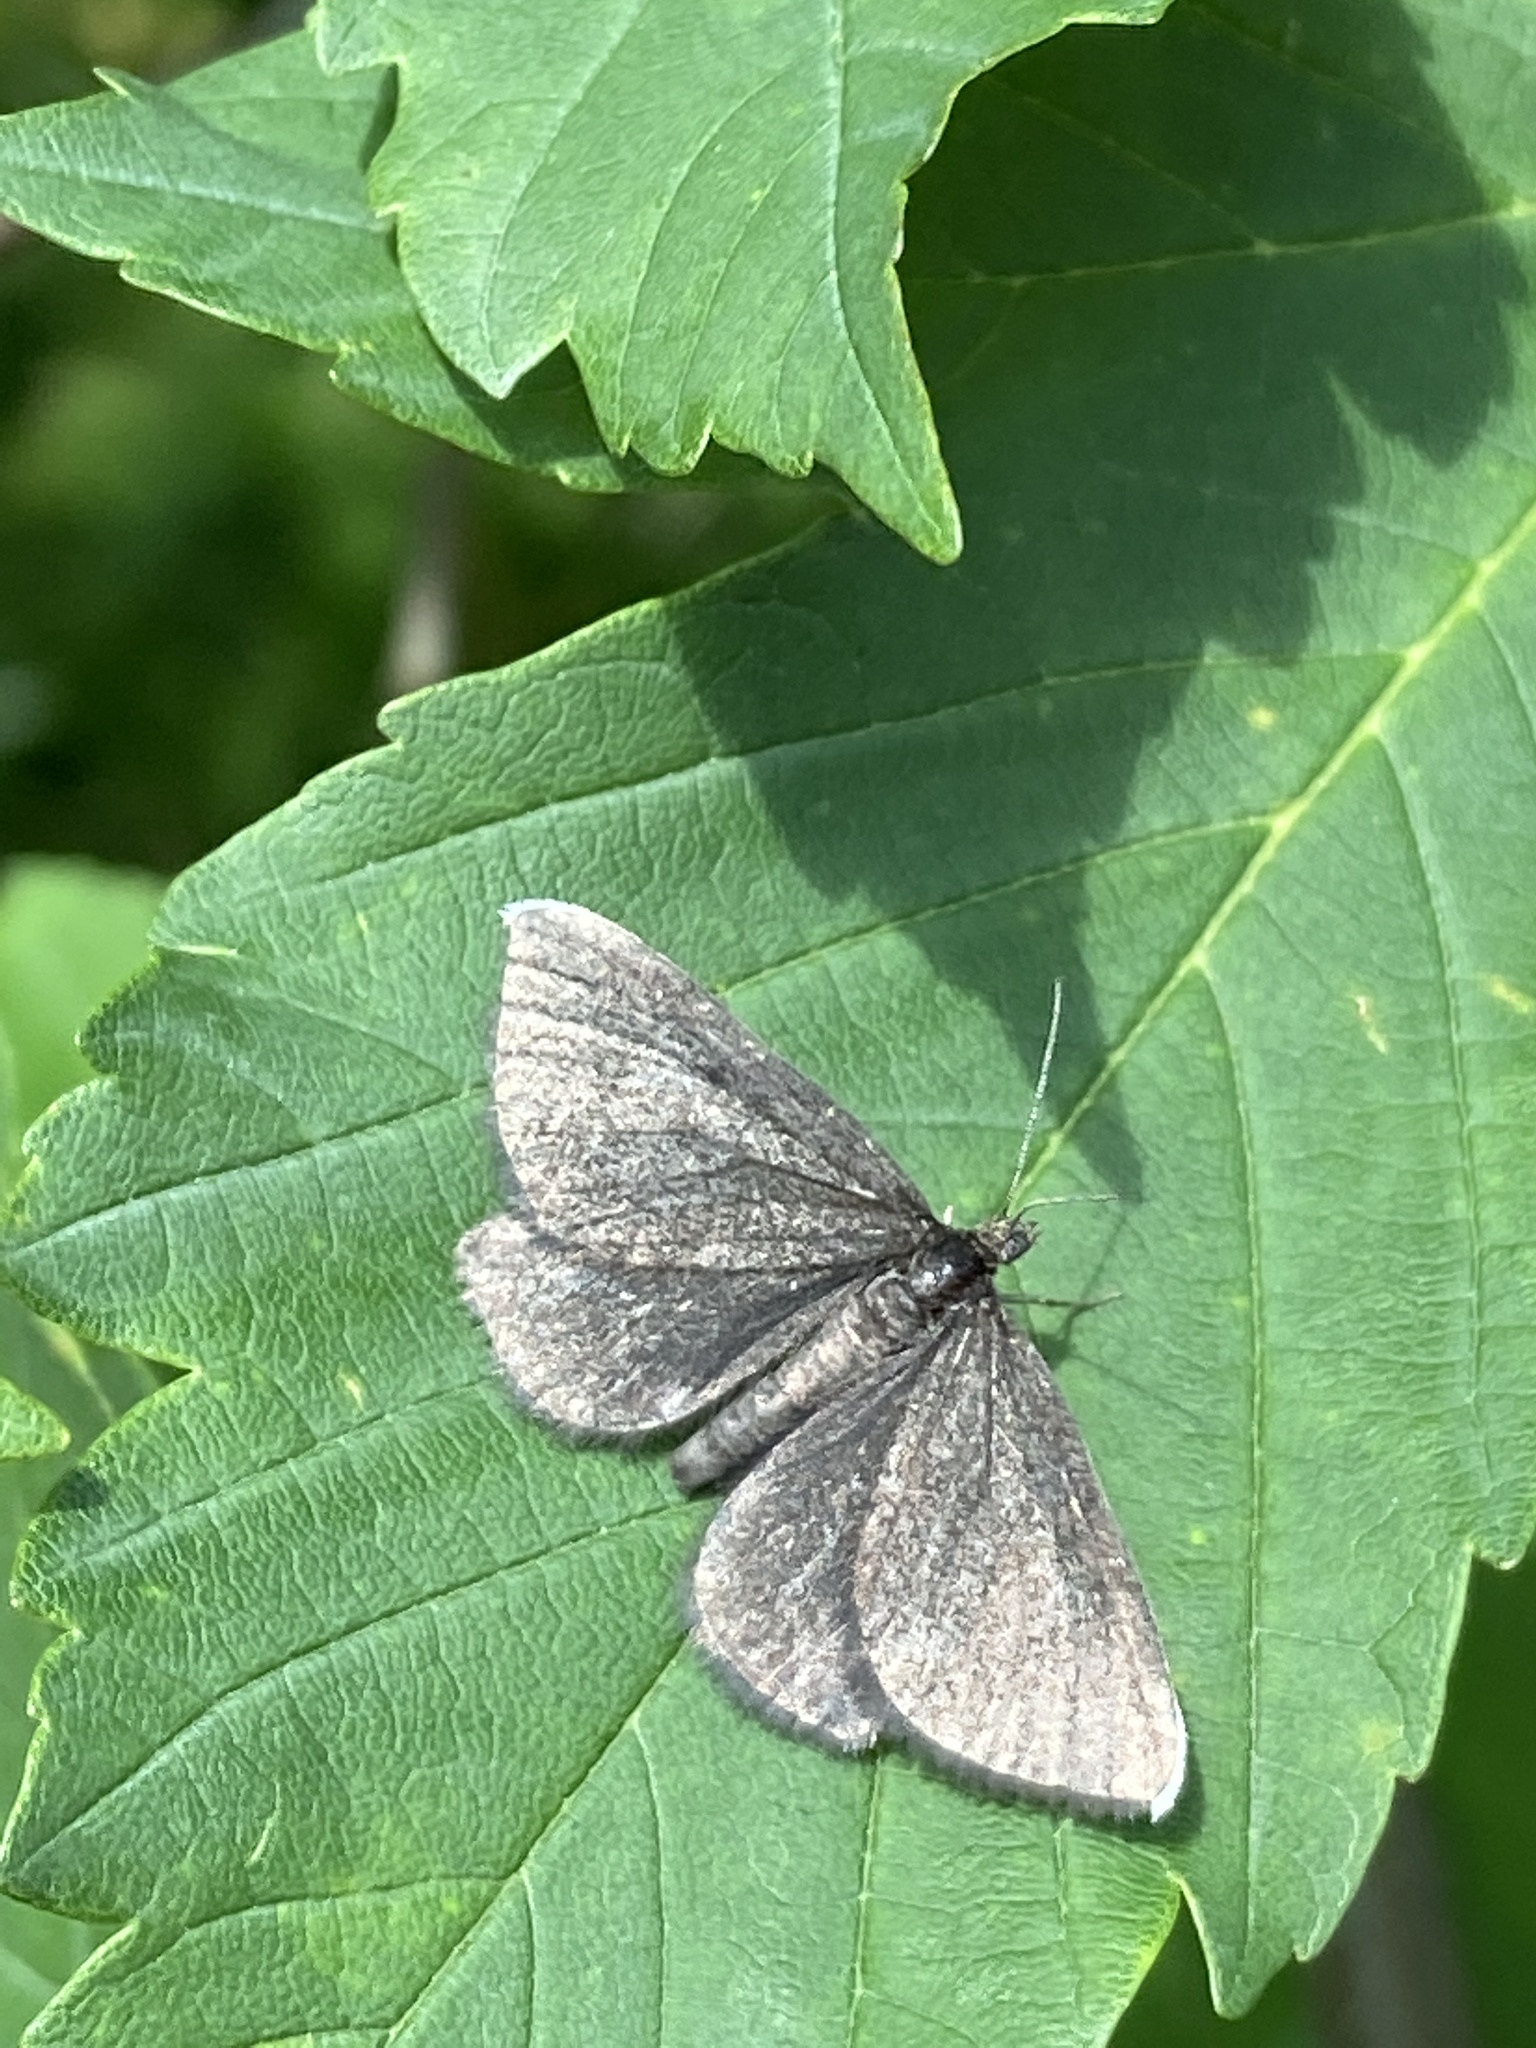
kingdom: Animalia
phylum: Arthropoda
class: Insecta
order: Lepidoptera
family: Geometridae
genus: Odezia
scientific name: Odezia atrata
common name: Chimney sweeper
